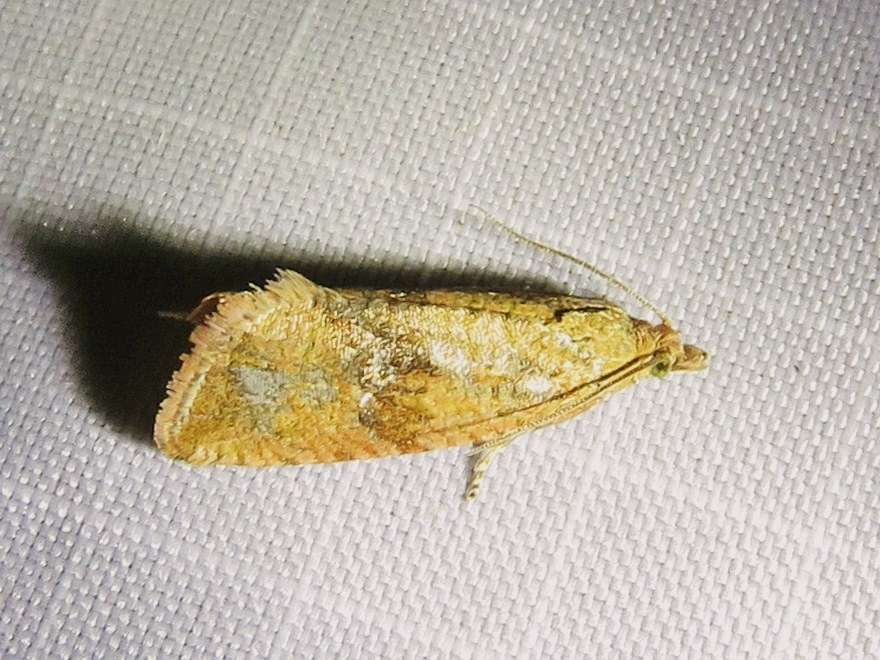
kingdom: Animalia
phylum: Arthropoda
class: Insecta
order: Lepidoptera
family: Tortricidae
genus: Celypha
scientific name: Celypha striana
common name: Barred marble
